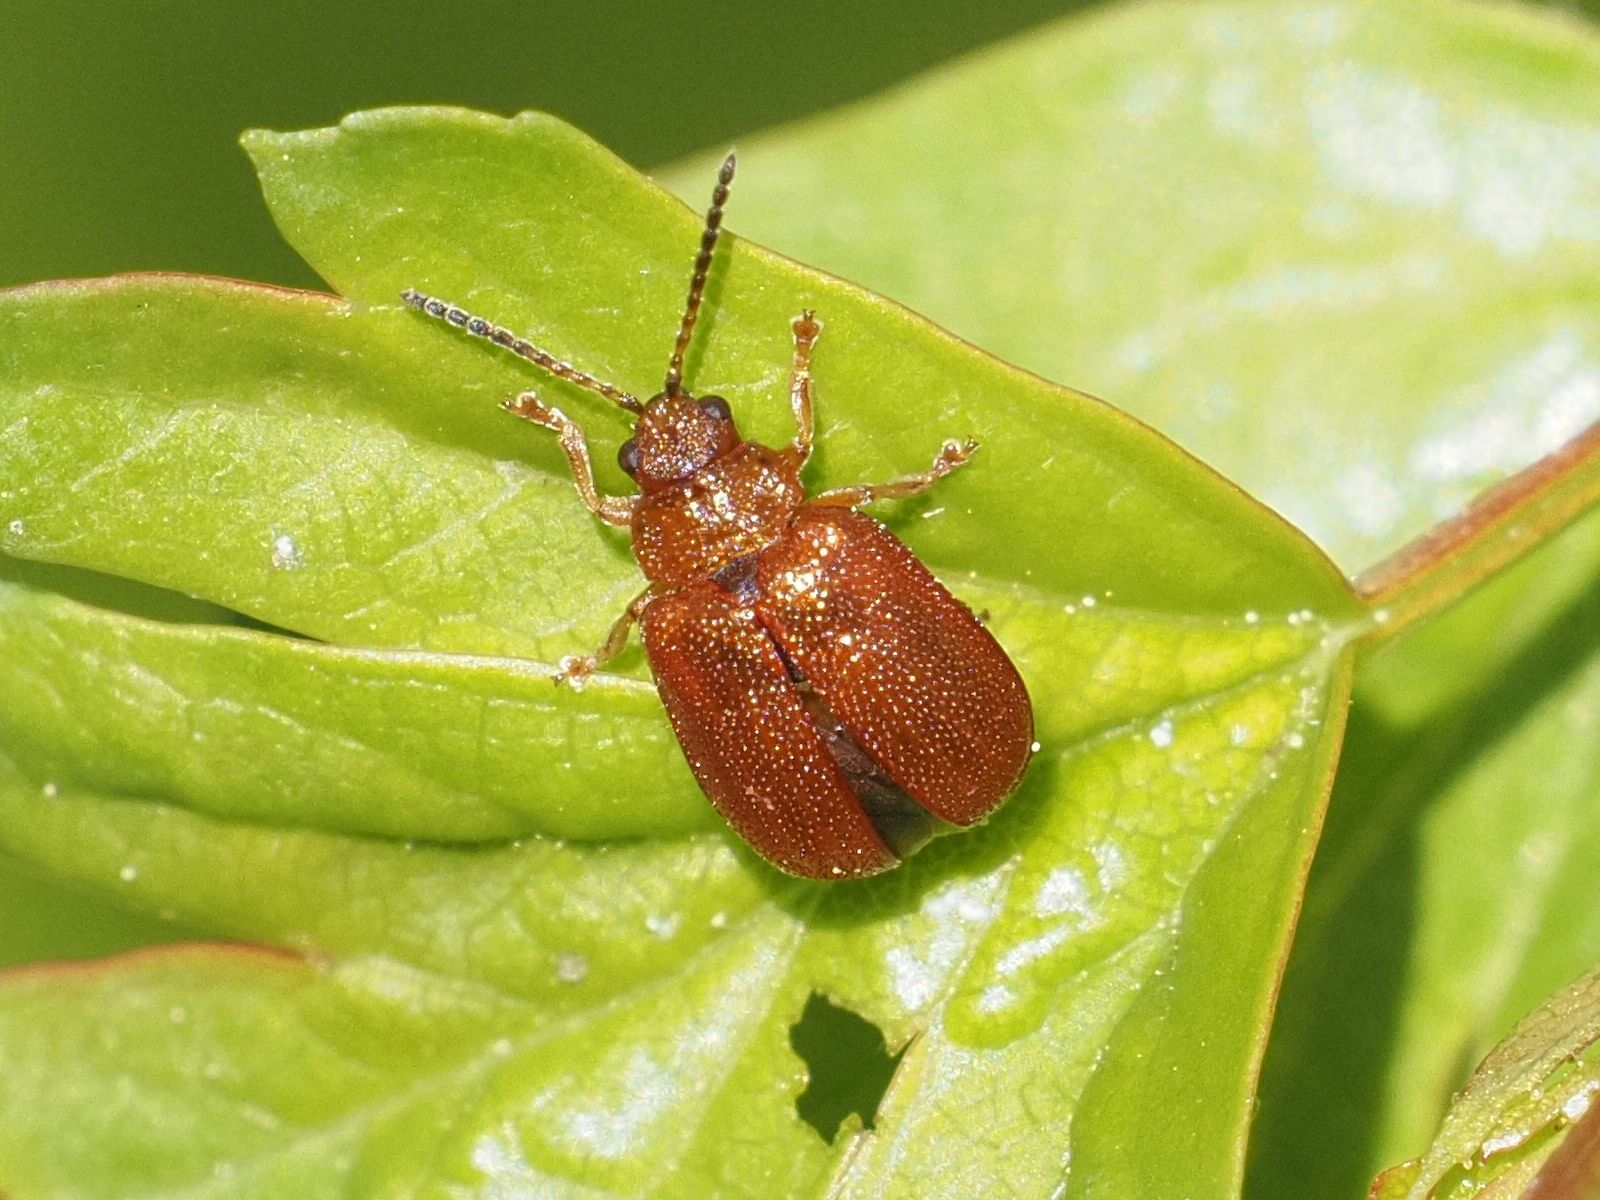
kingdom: Animalia
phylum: Arthropoda
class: Insecta
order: Coleoptera
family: Chrysomelidae
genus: Lochmaea
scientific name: Lochmaea crataegi
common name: Hawthorn leaf beetle
